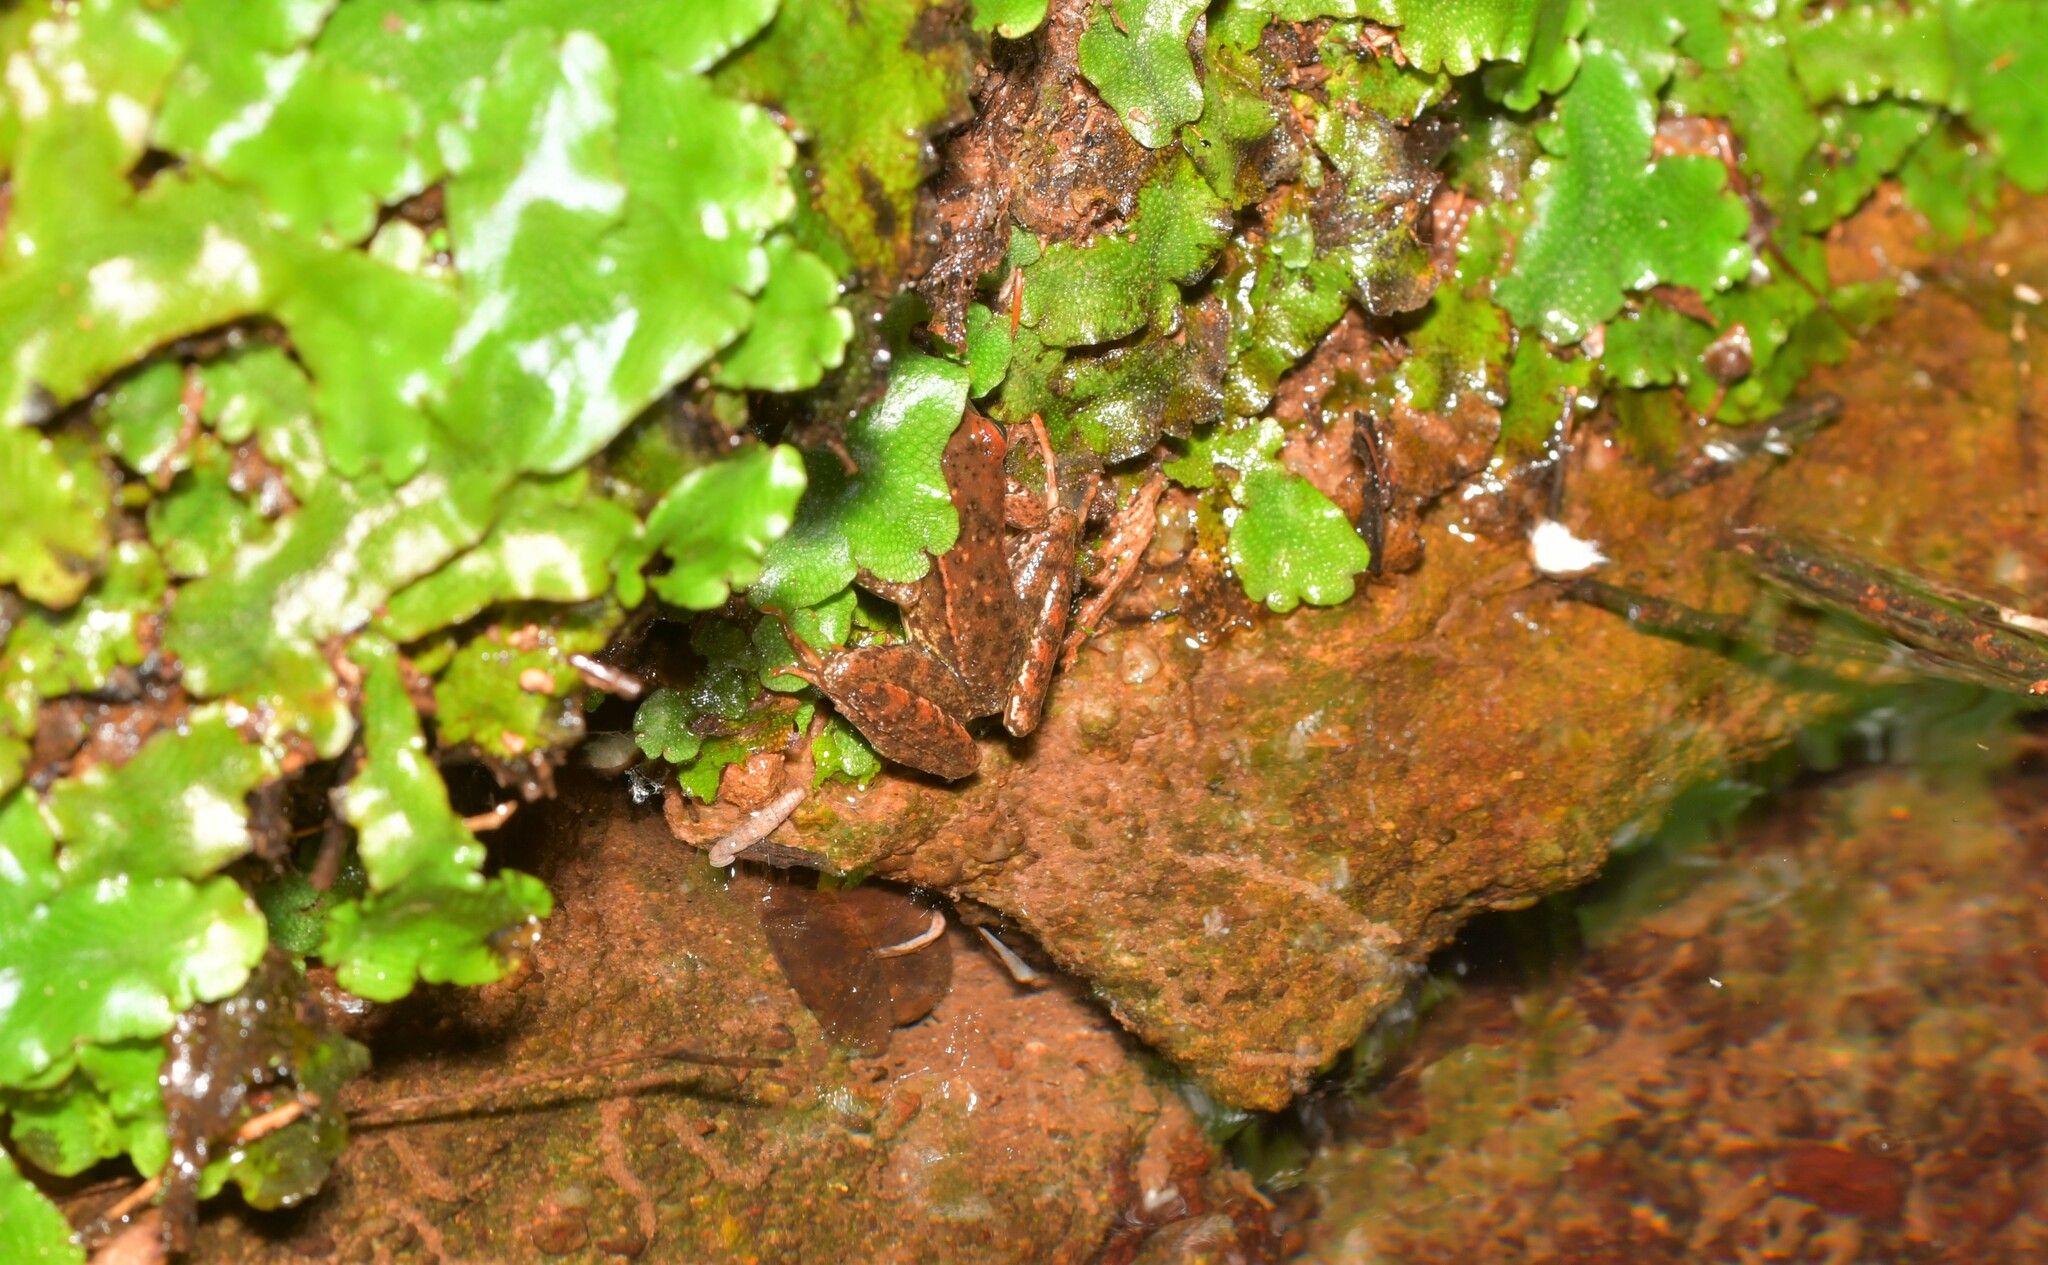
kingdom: Animalia
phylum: Chordata
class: Amphibia
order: Anura
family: Ranidae
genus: Rana
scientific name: Rana iberica
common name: Iberian frog
